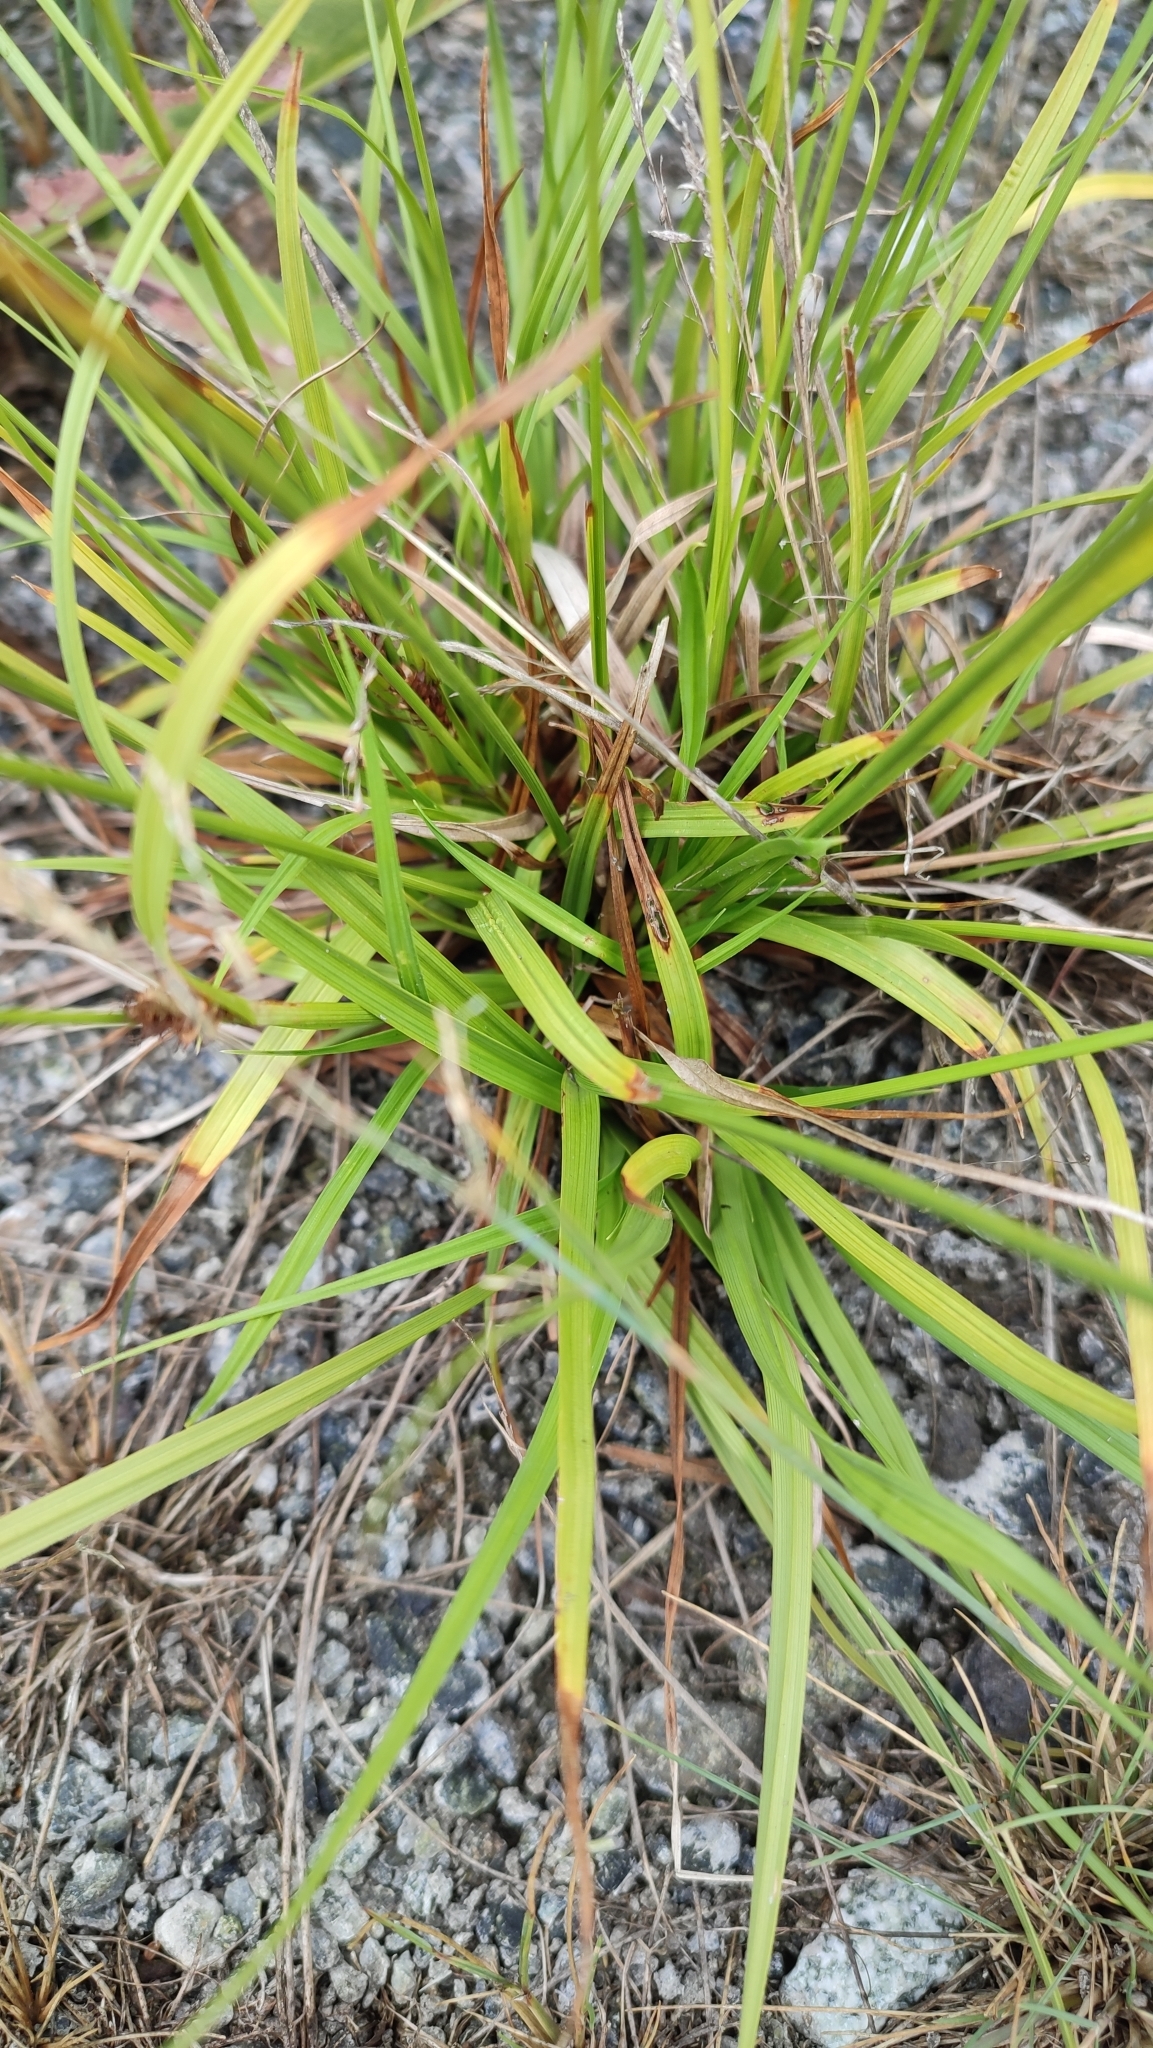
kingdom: Plantae
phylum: Tracheophyta
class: Liliopsida
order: Poales
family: Cyperaceae
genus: Carex
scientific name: Carex distans
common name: Distant sedge
